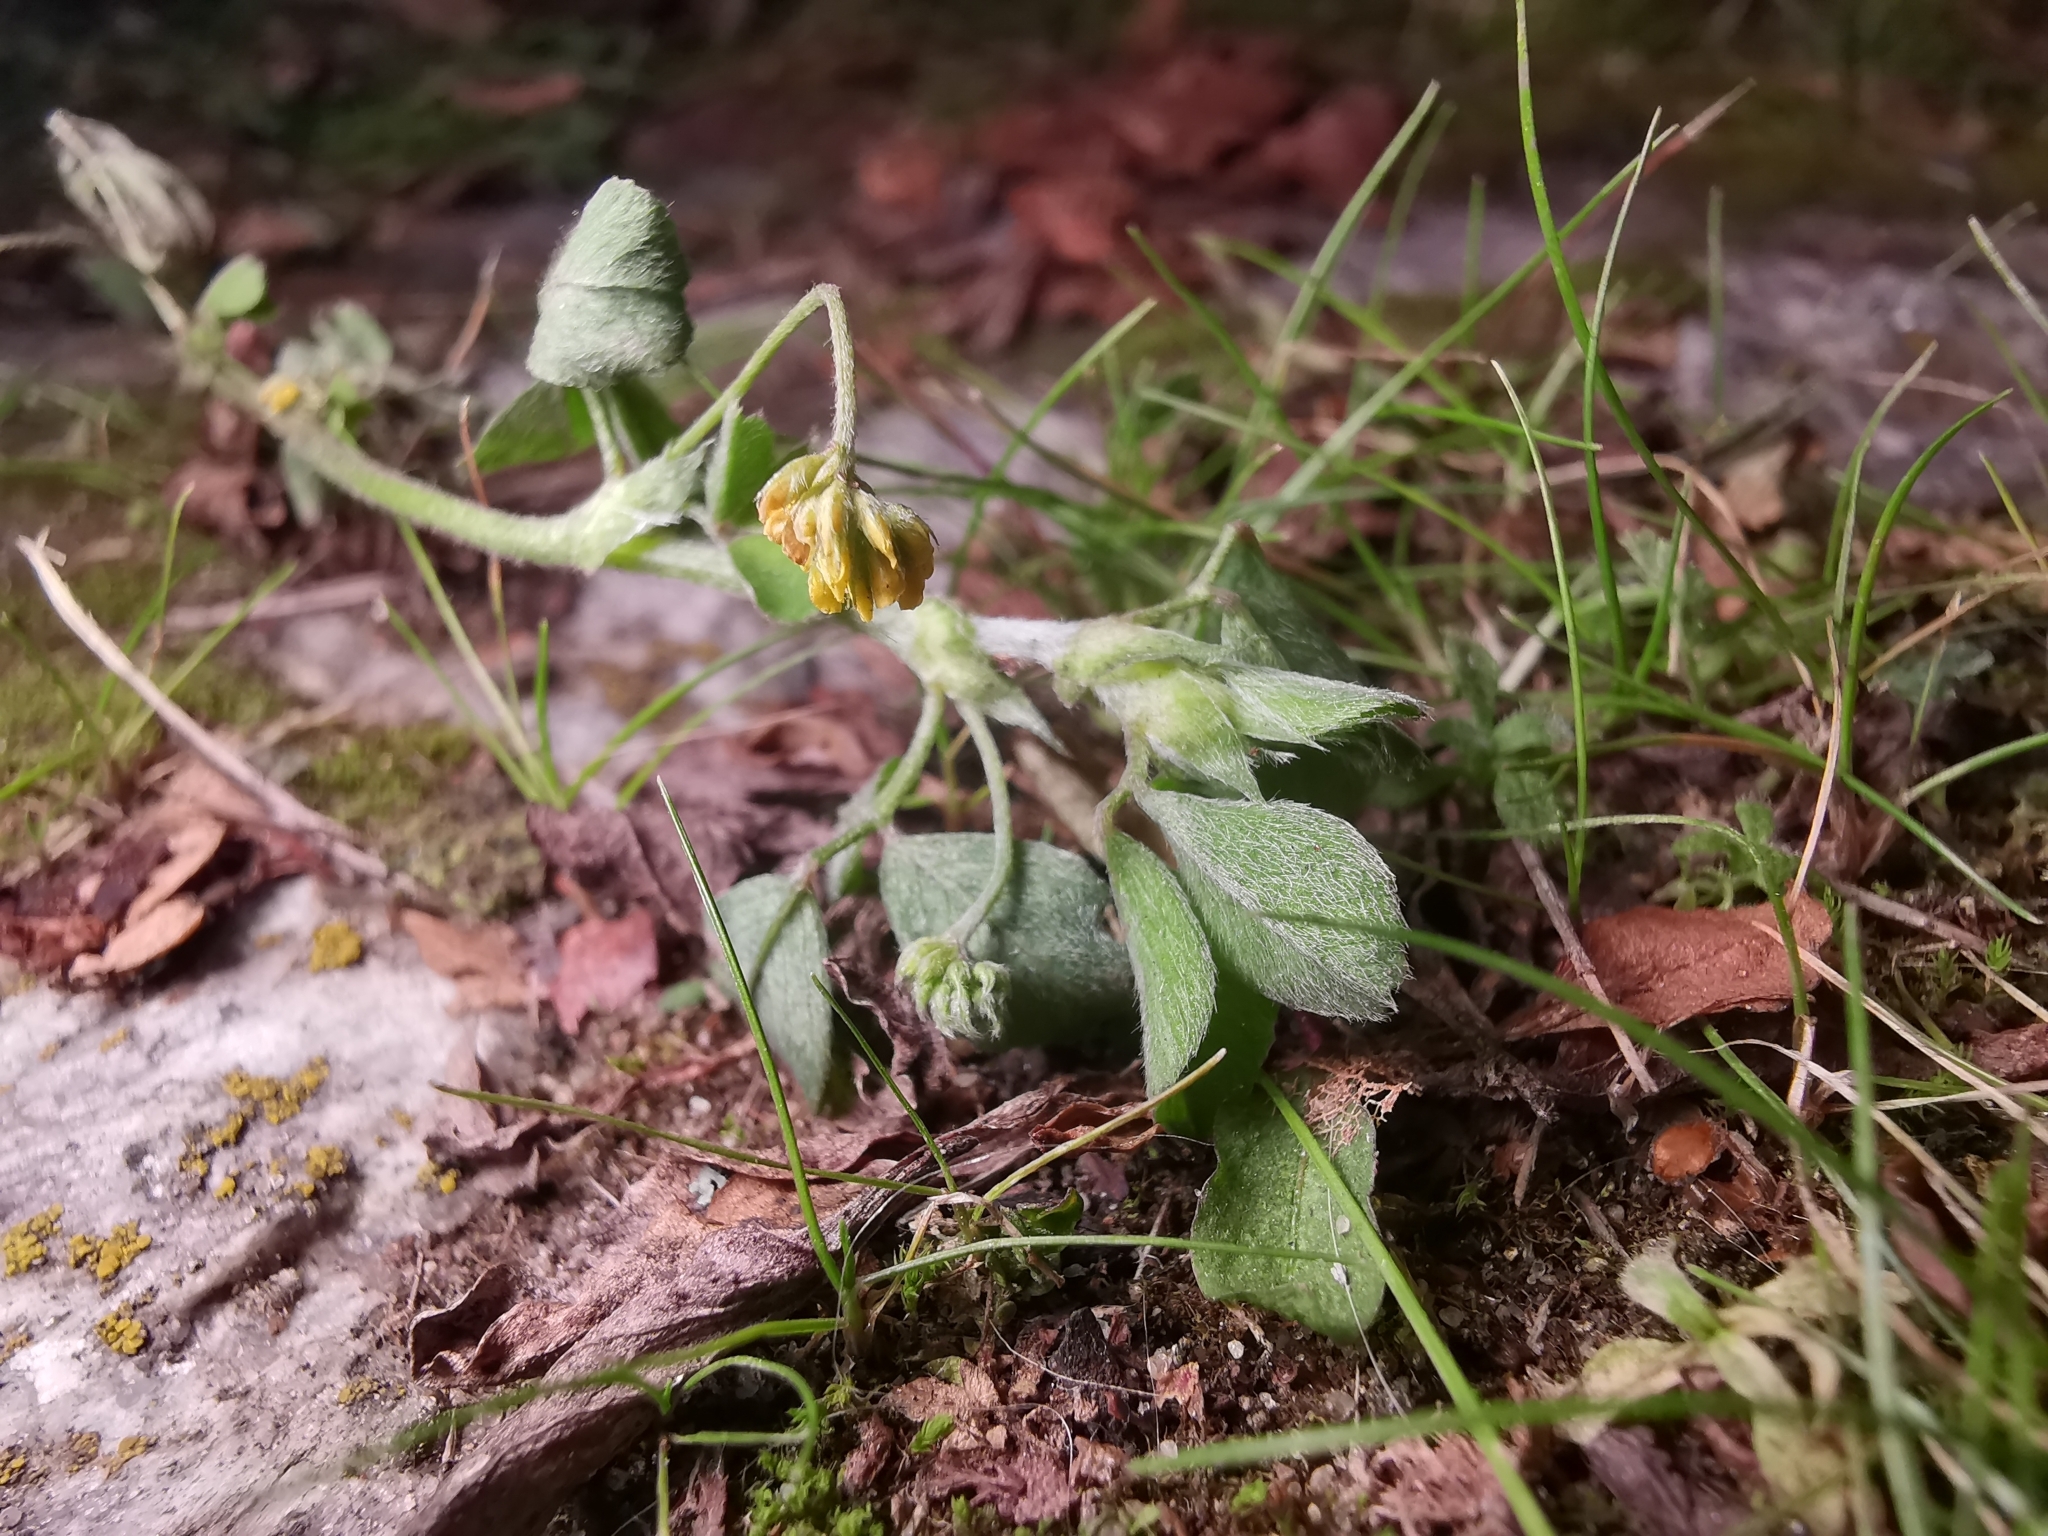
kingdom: Plantae
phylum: Tracheophyta
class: Magnoliopsida
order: Fabales
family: Fabaceae
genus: Medicago
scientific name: Medicago lupulina
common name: Black medick
